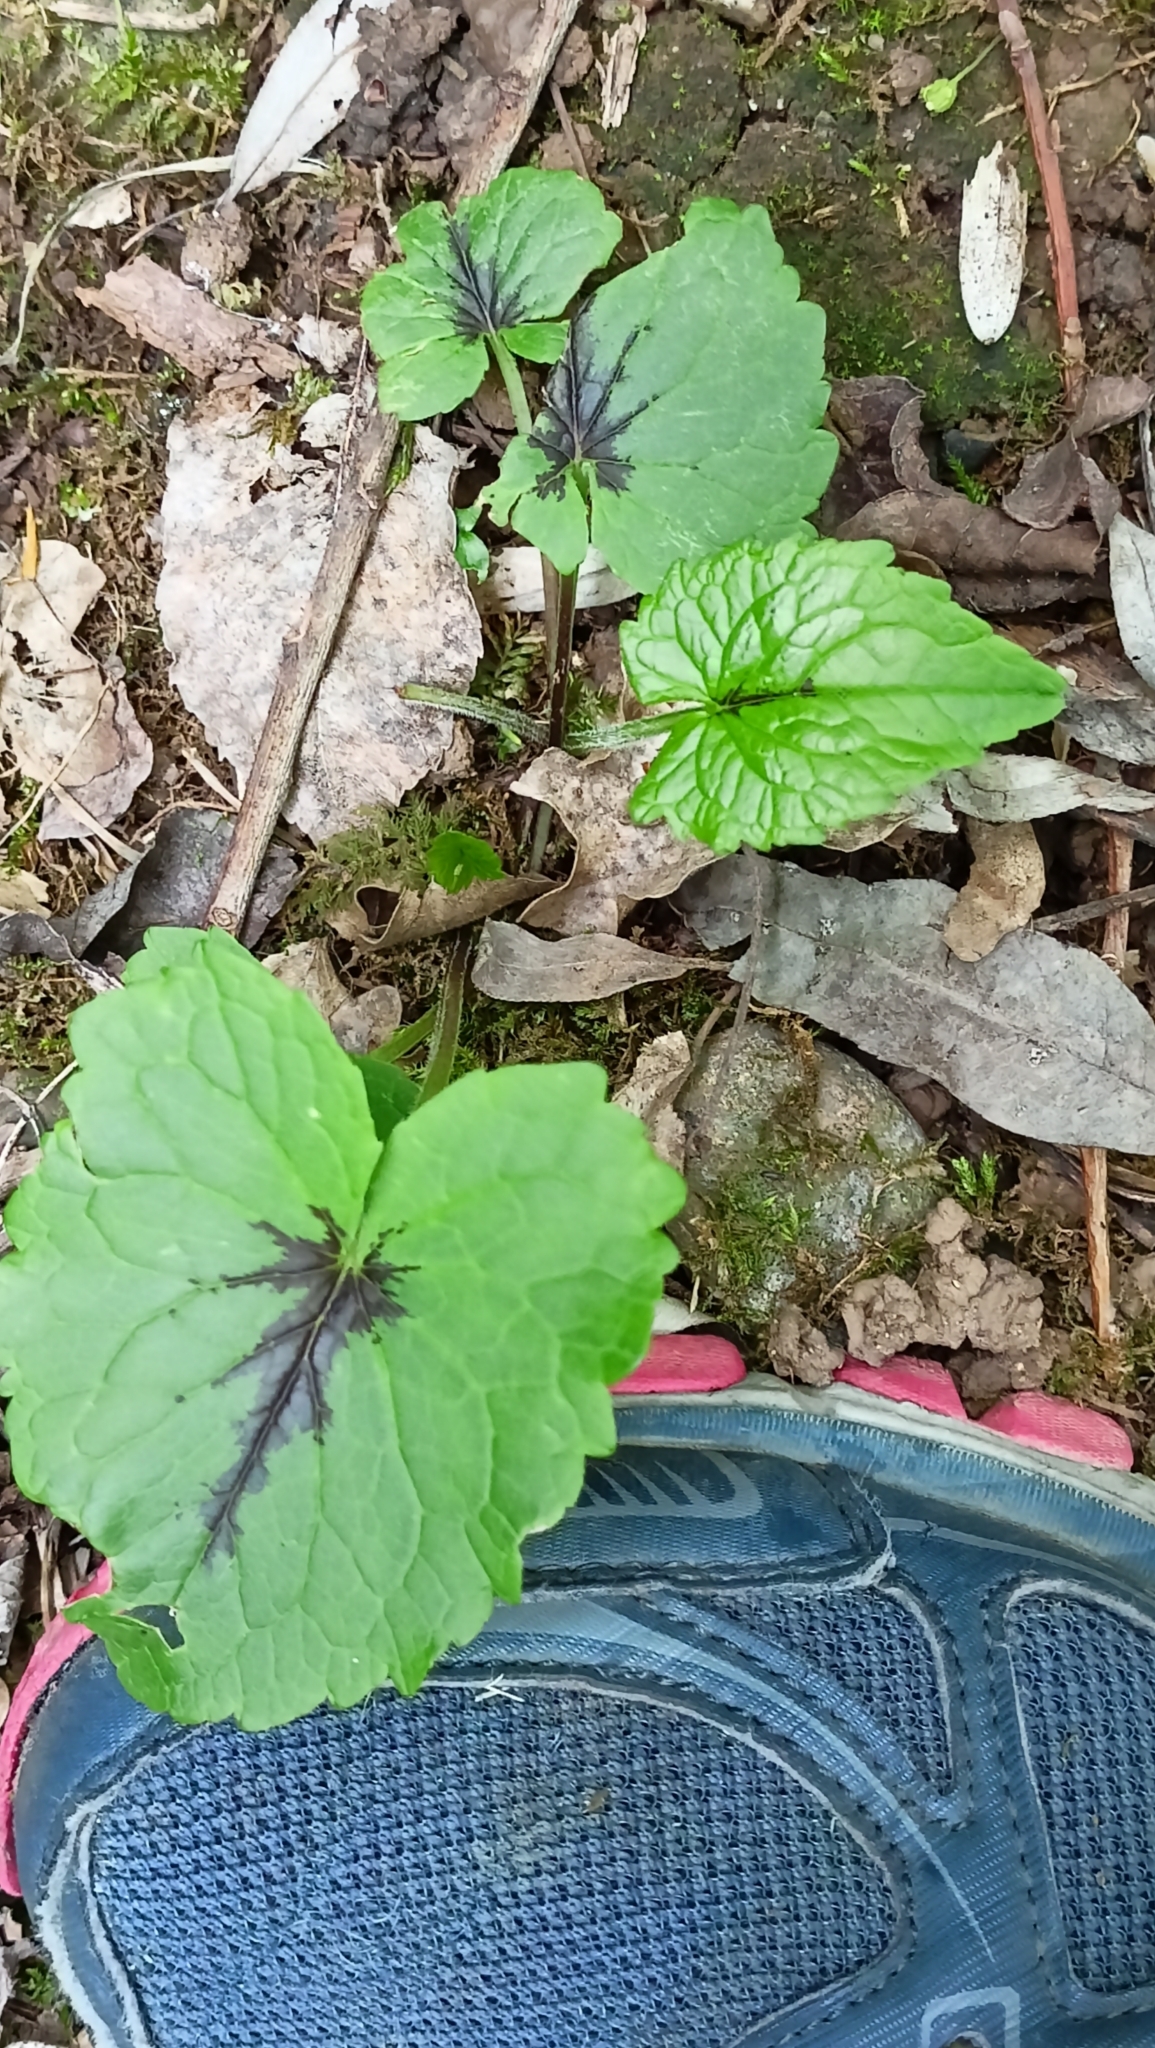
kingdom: Plantae
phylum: Tracheophyta
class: Magnoliopsida
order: Asterales
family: Campanulaceae
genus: Phyteuma
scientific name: Phyteuma ovatum
